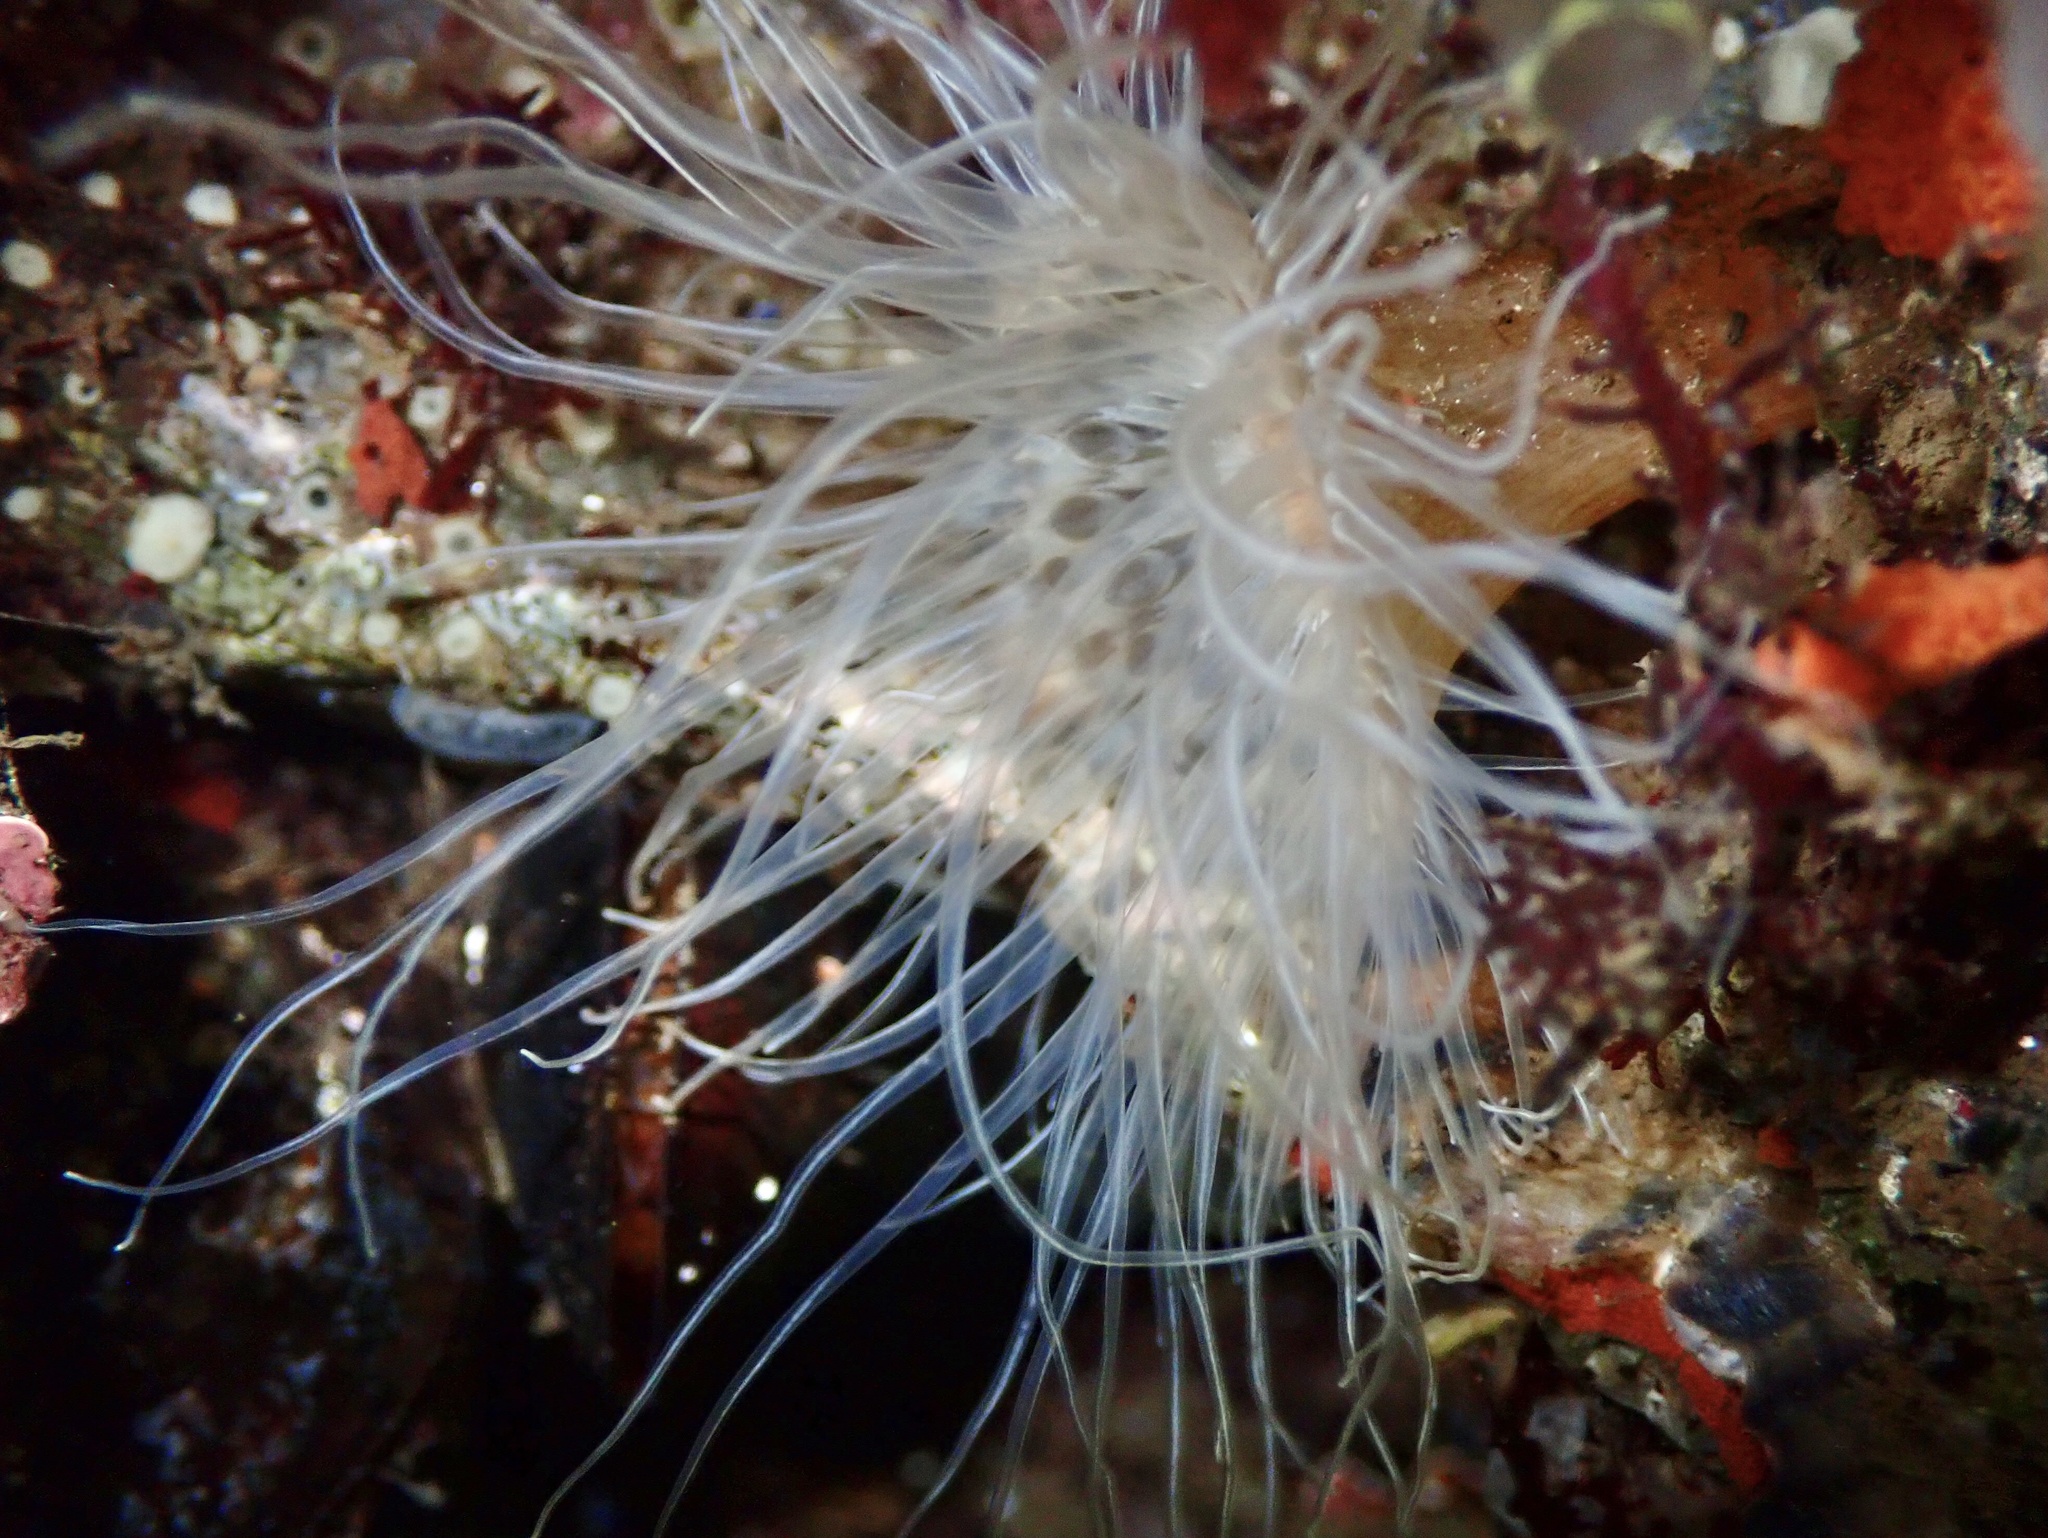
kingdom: Animalia
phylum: Cnidaria
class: Anthozoa
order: Actiniaria
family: Sagartiidae
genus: Sagartia
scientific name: Sagartia undata
